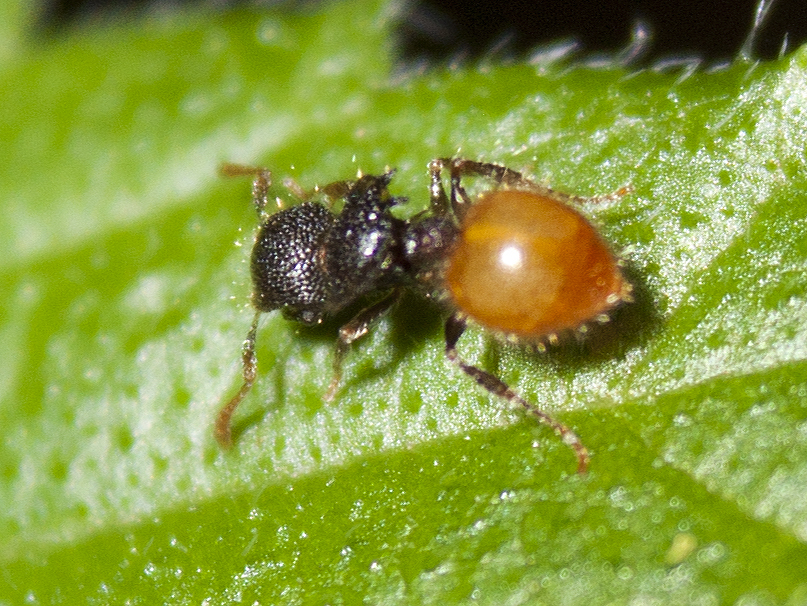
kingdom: Animalia
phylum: Arthropoda
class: Insecta
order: Hymenoptera
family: Formicidae
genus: Meranoplus
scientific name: Meranoplus hirsutus
